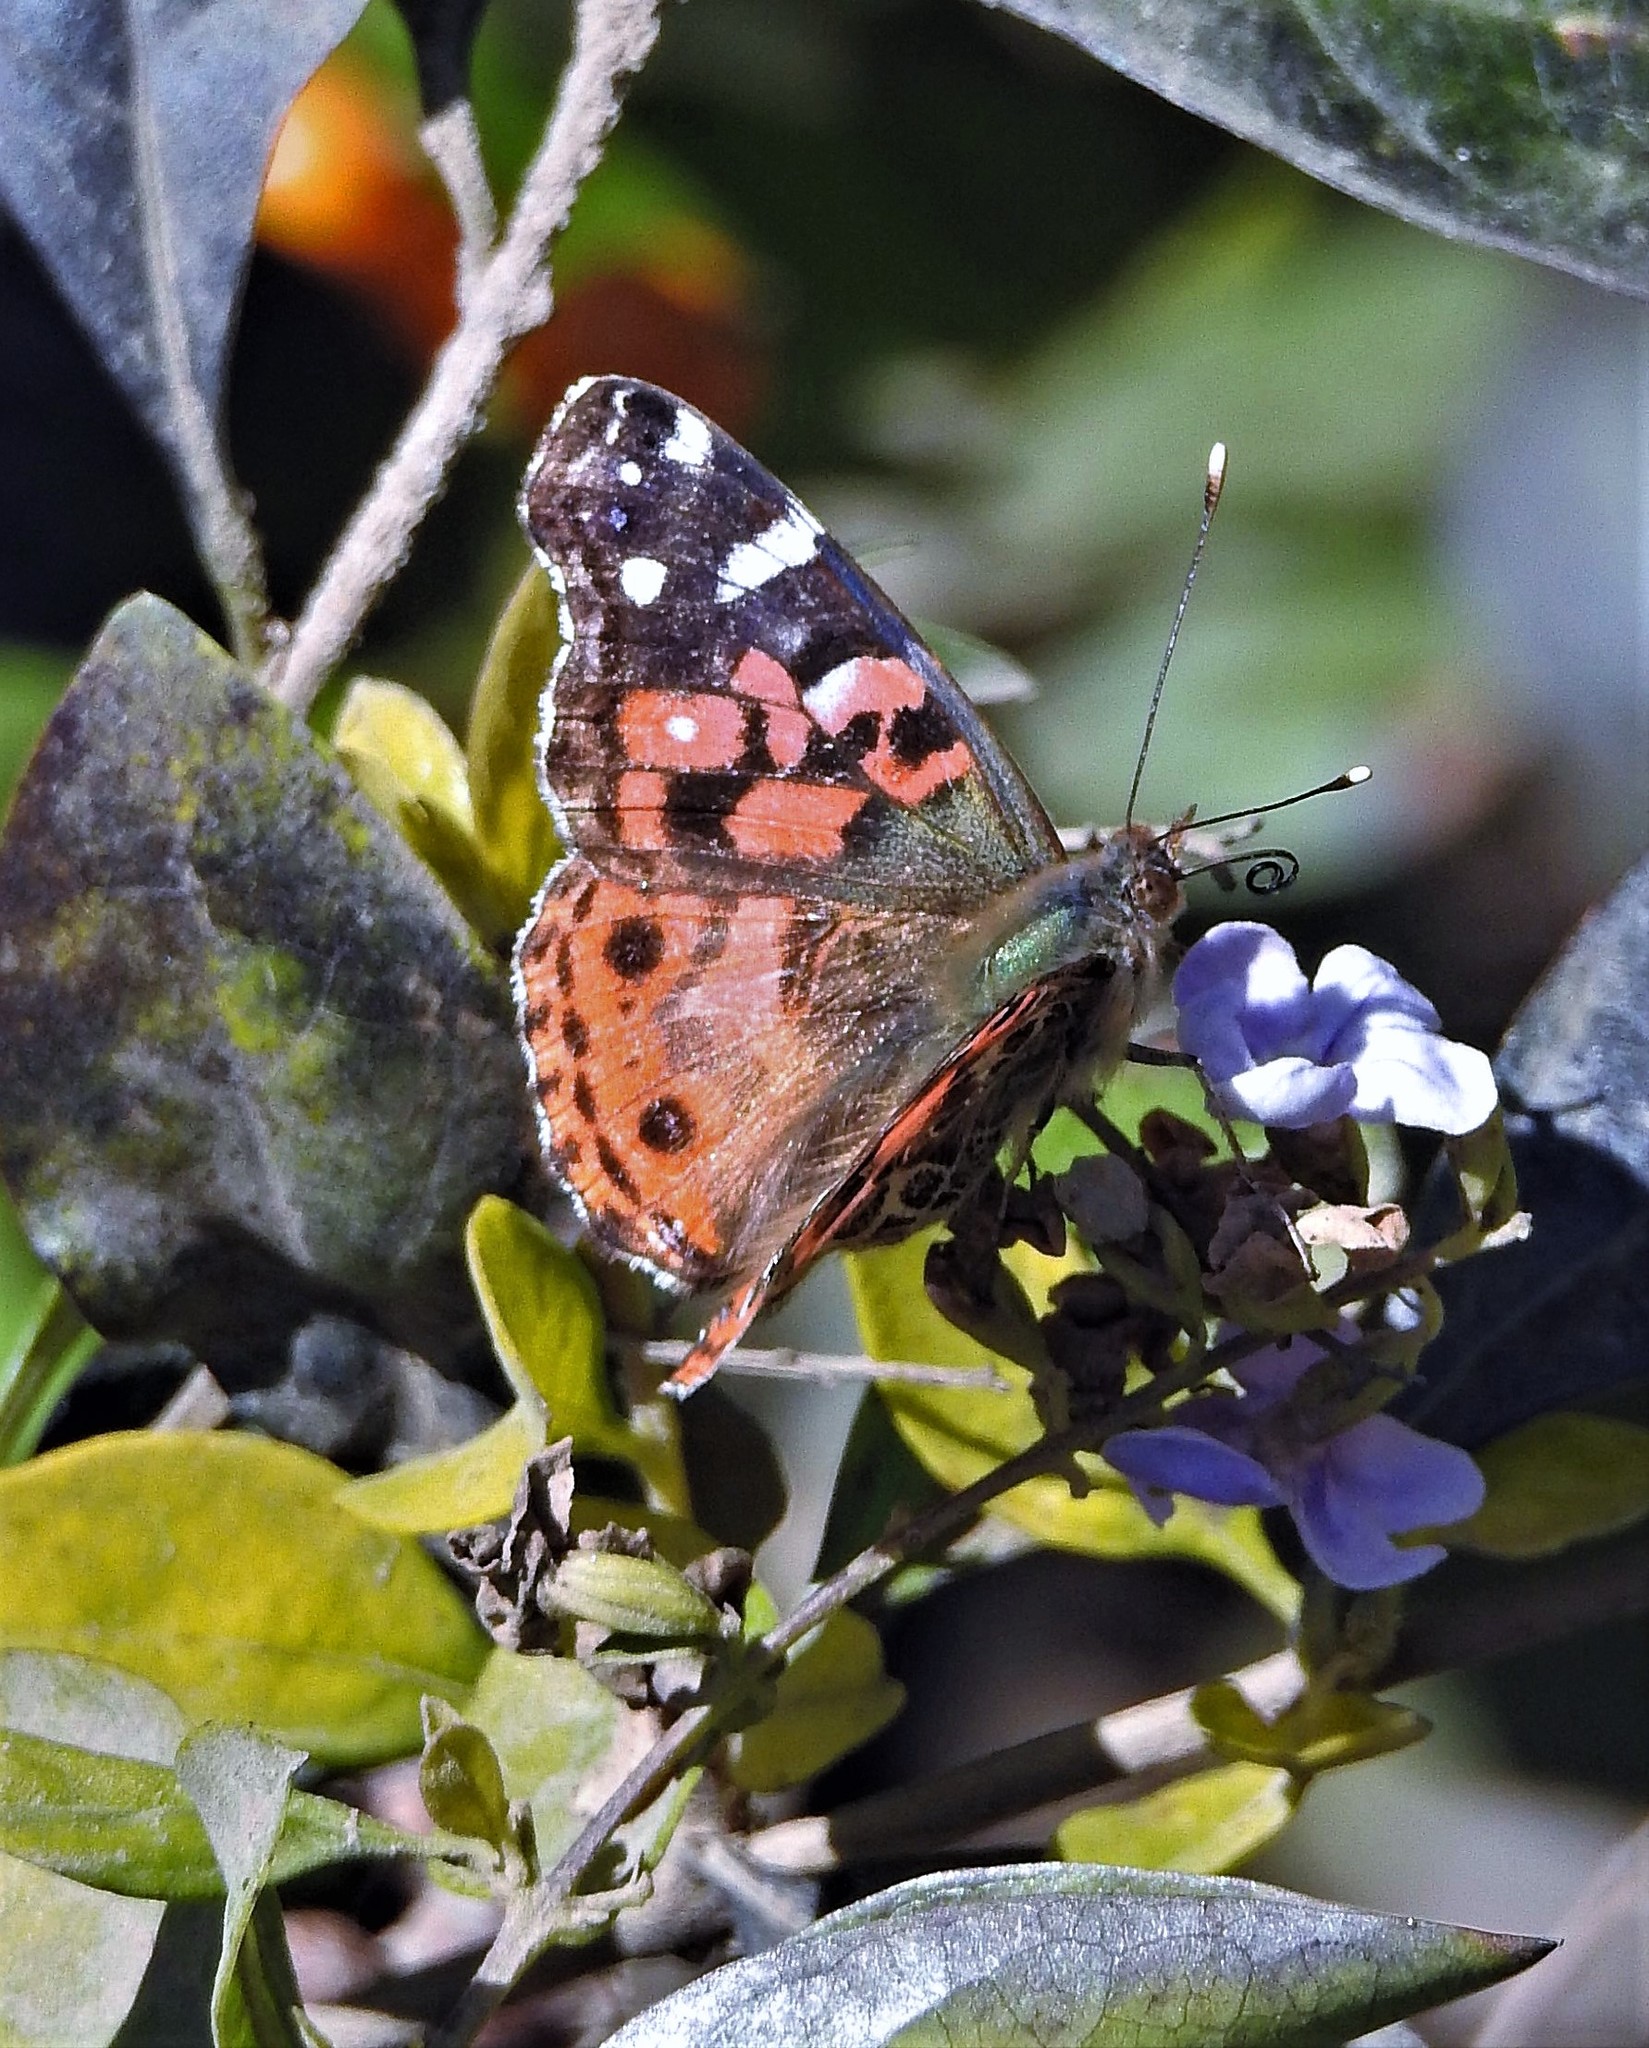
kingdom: Animalia
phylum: Arthropoda
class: Insecta
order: Lepidoptera
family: Nymphalidae
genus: Vanessa
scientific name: Vanessa braziliensis
